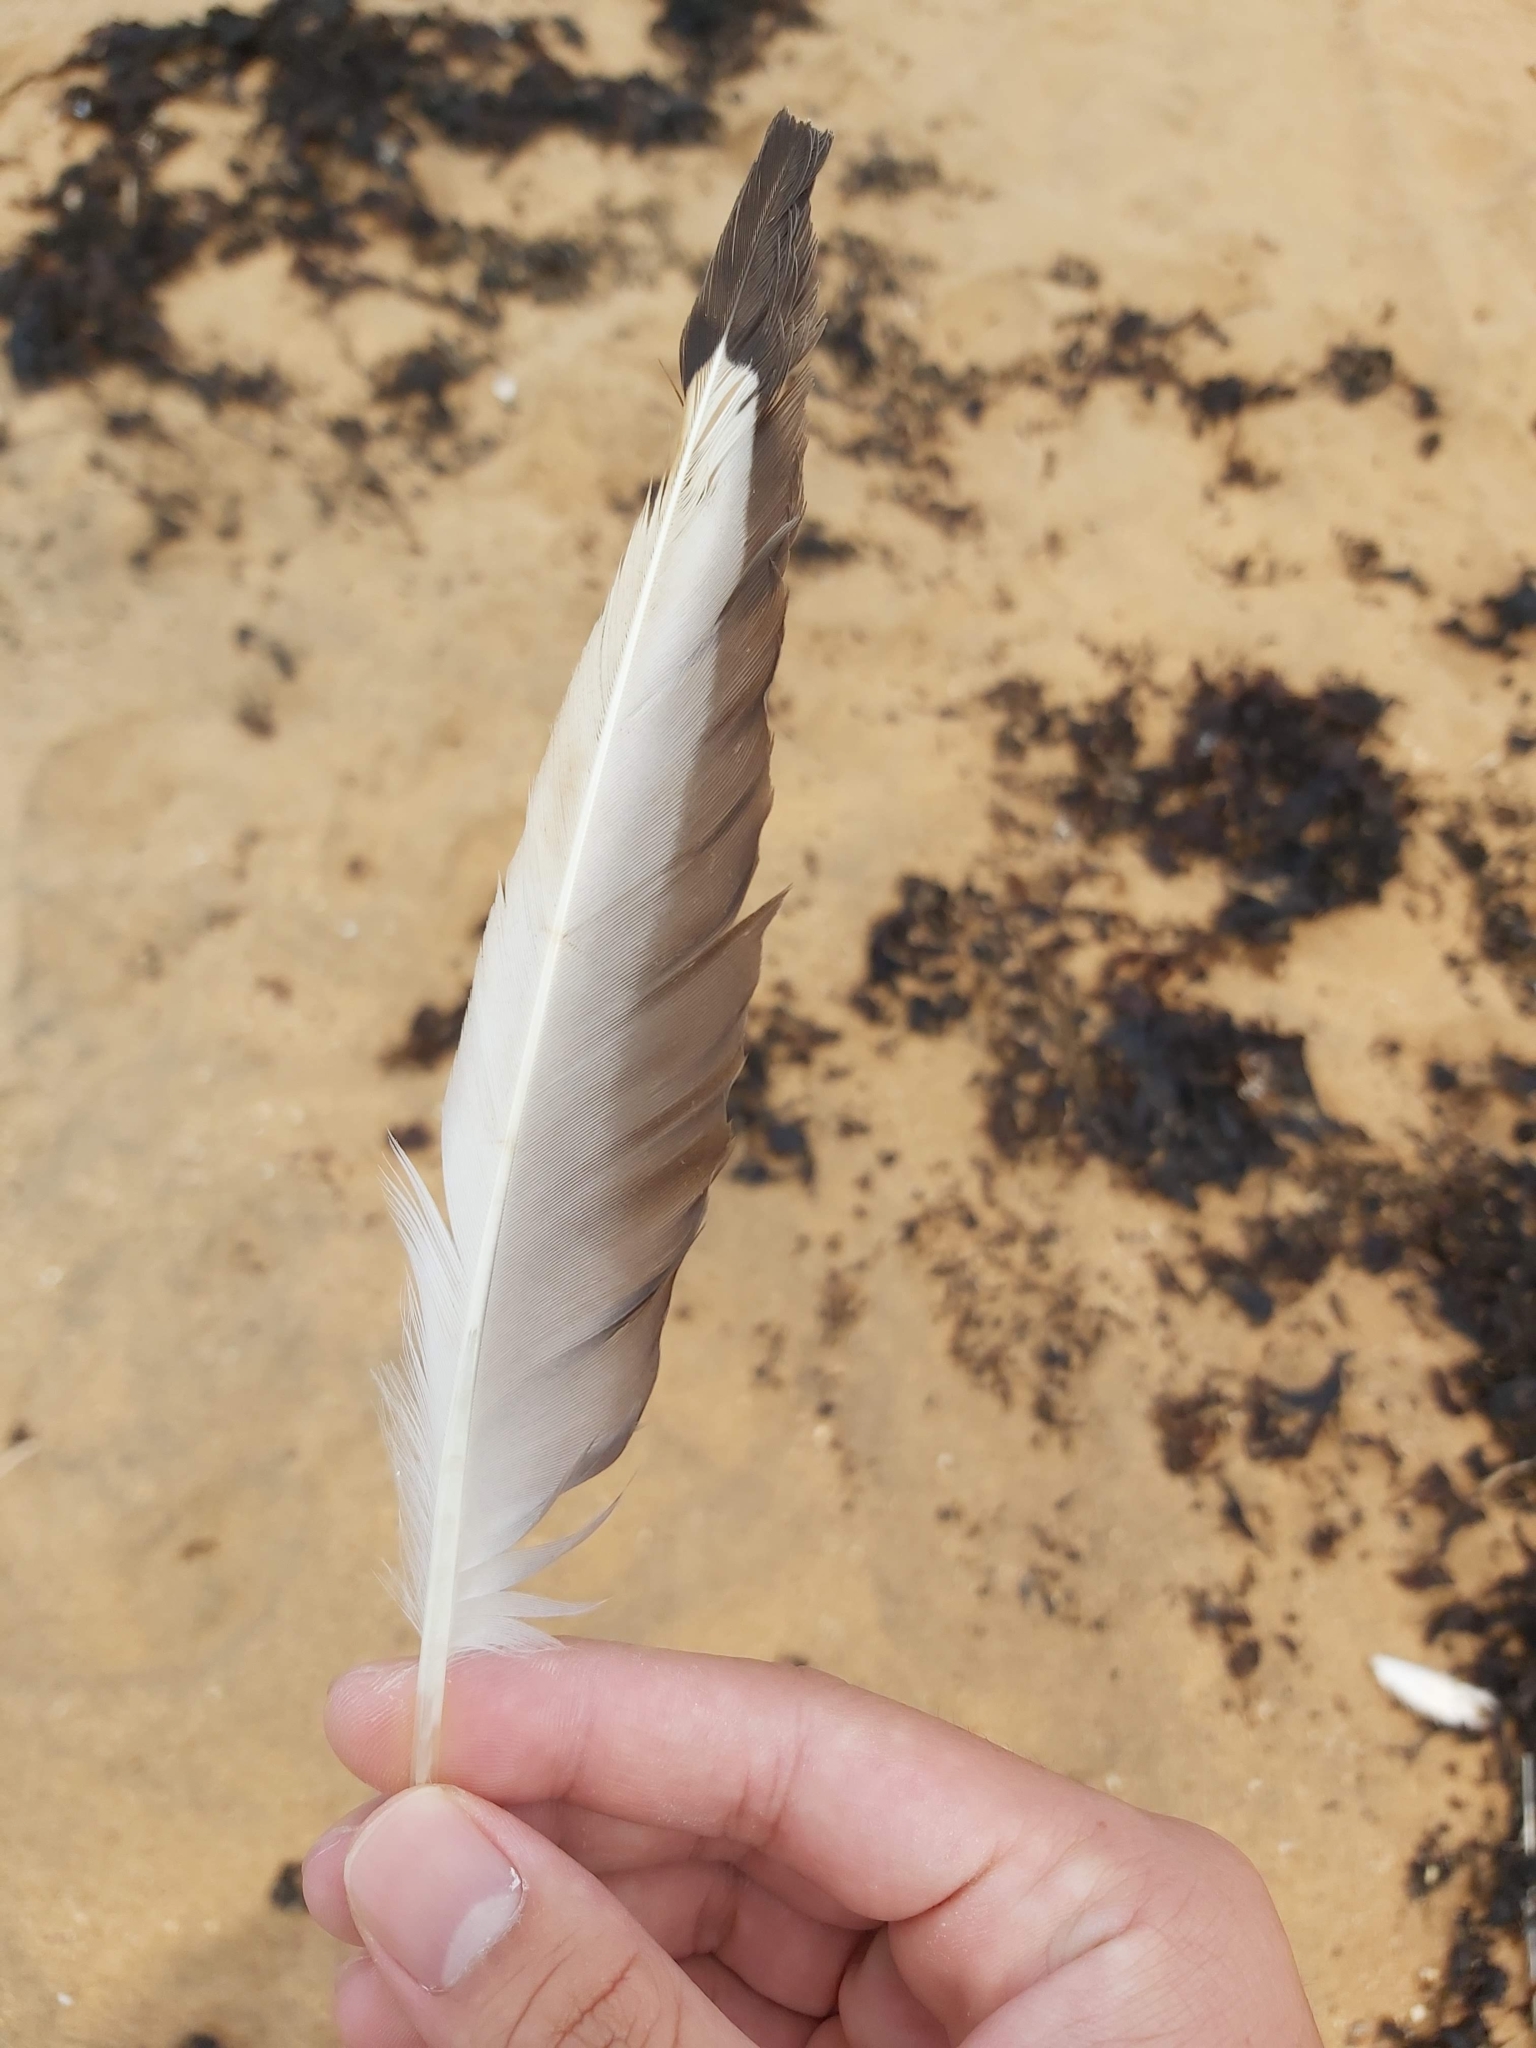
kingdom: Animalia
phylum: Chordata
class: Aves
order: Charadriiformes
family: Laridae
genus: Chroicocephalus
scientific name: Chroicocephalus novaehollandiae
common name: Silver gull
